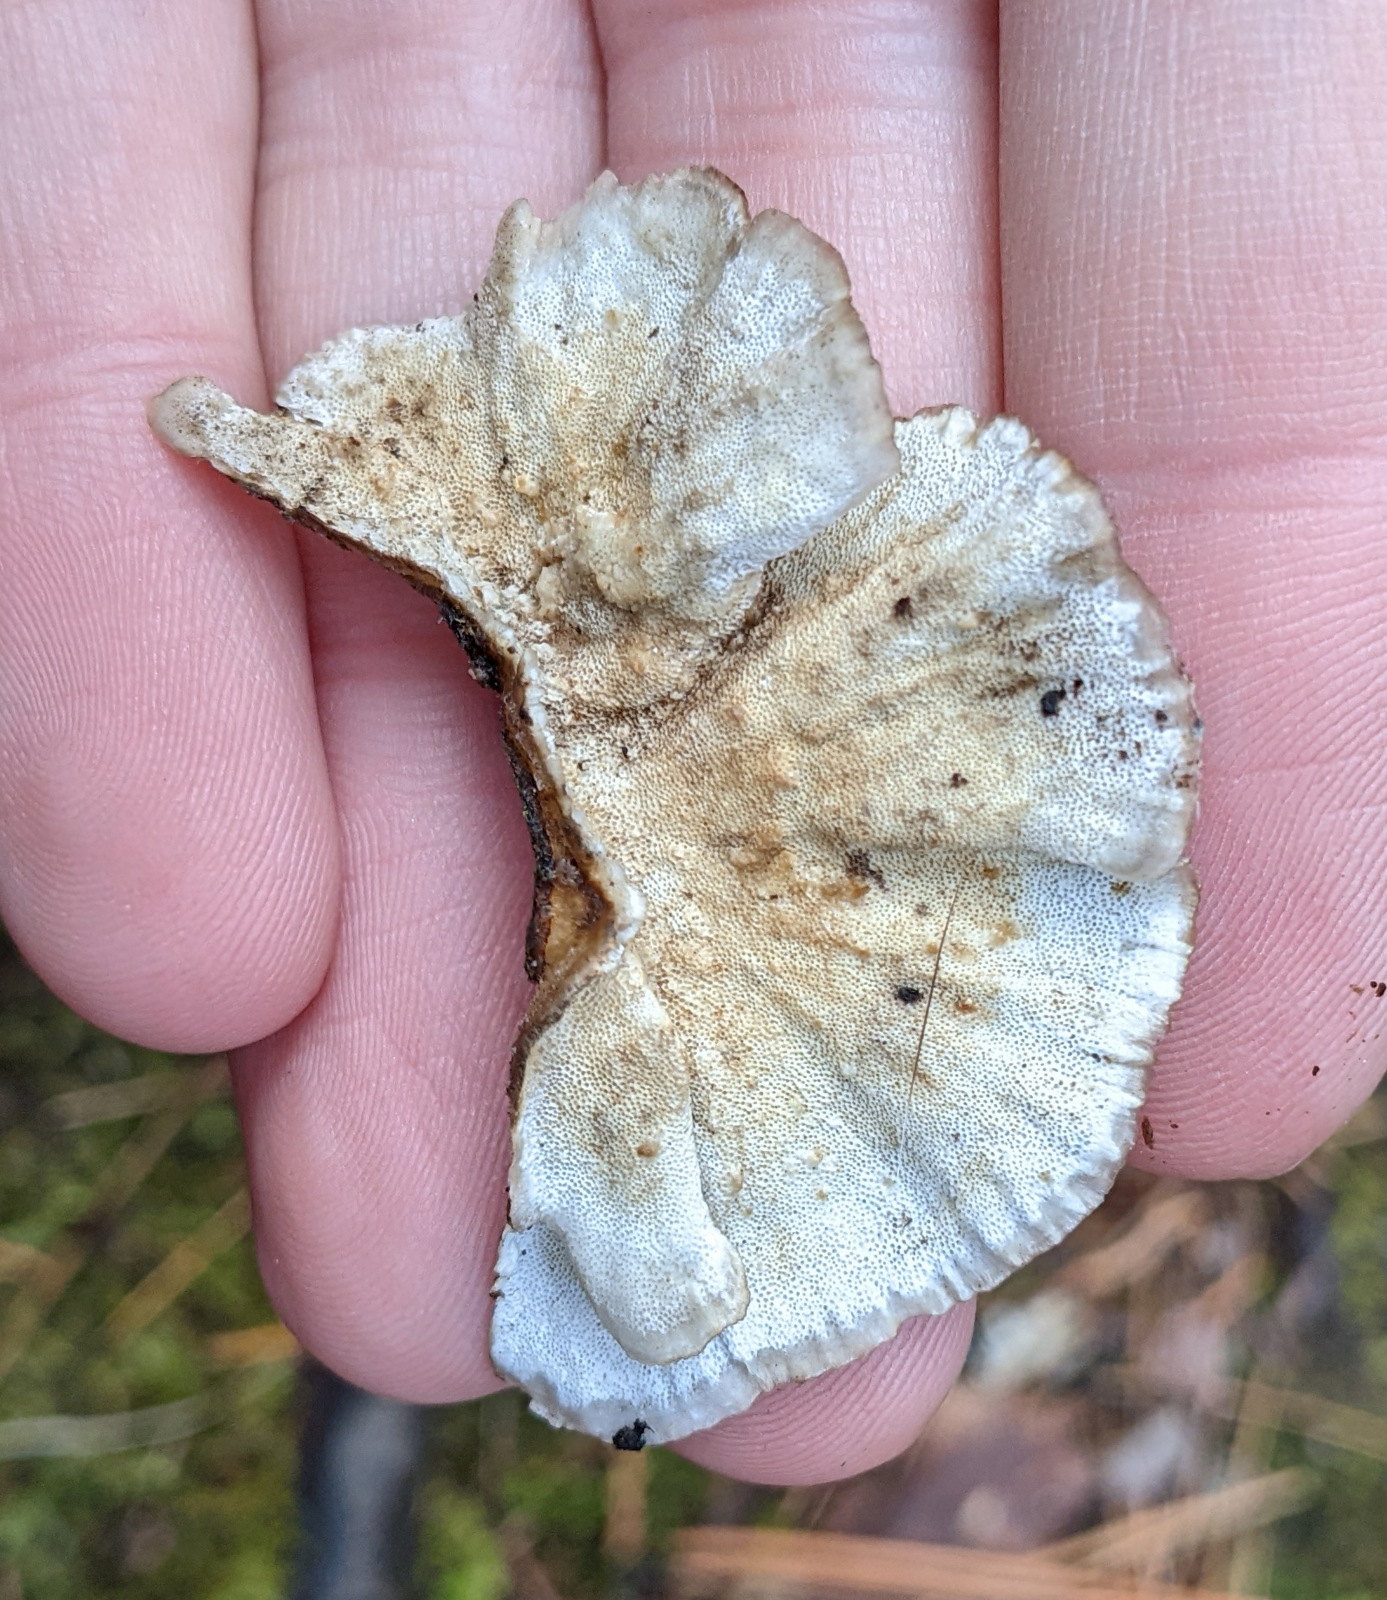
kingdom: Fungi
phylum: Basidiomycota
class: Agaricomycetes
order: Polyporales
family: Polyporaceae
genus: Trametes
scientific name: Trametes versicolor
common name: Turkeytail
